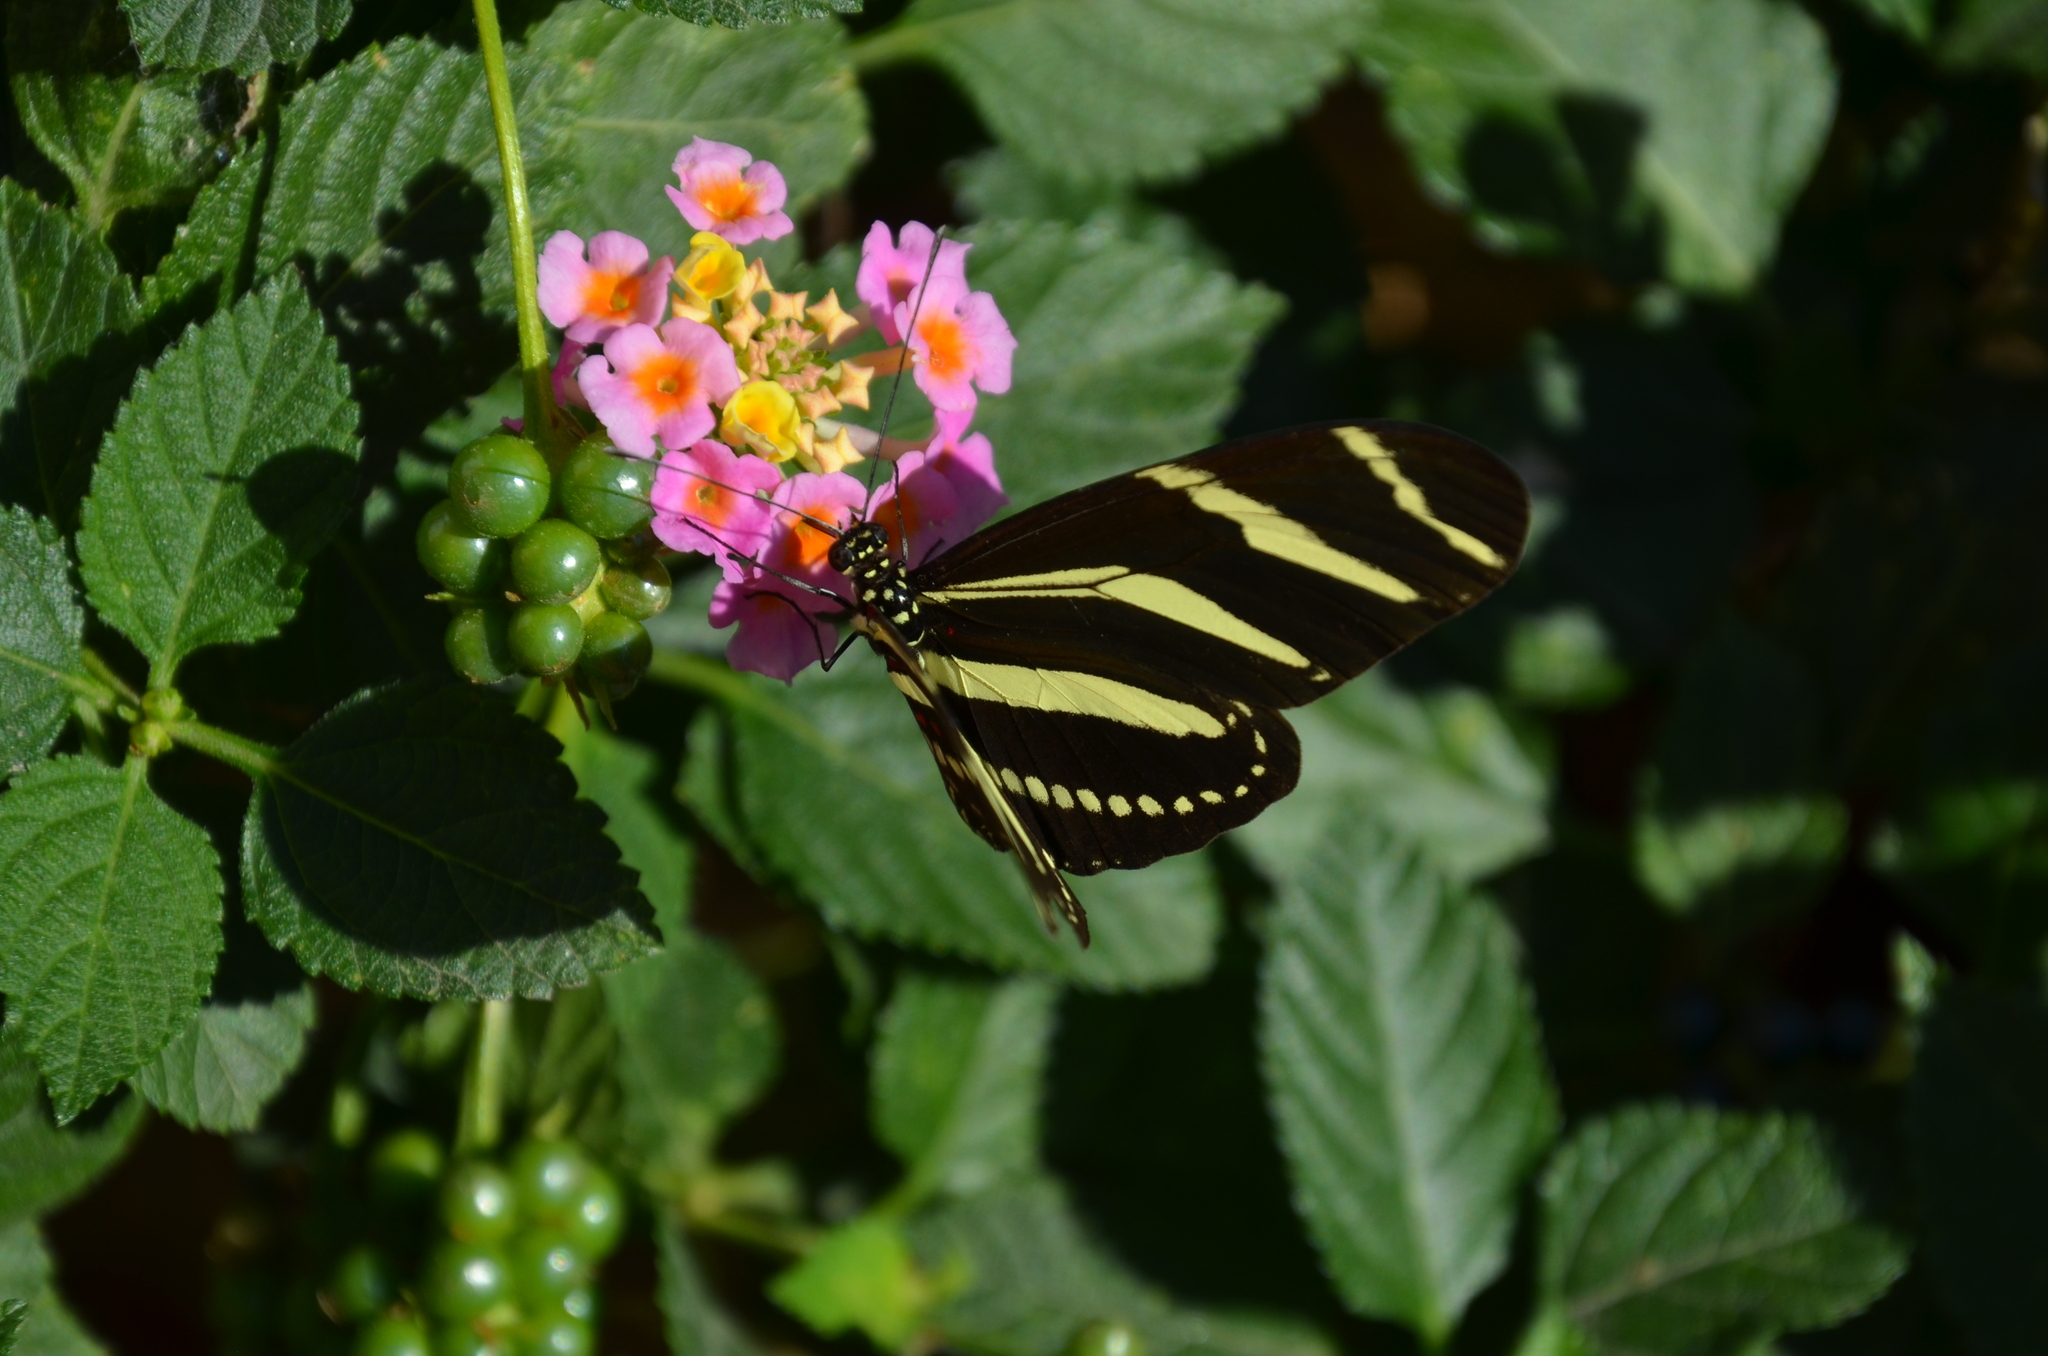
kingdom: Animalia
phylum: Arthropoda
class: Insecta
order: Lepidoptera
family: Nymphalidae
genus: Heliconius
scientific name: Heliconius charithonia
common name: Zebra long wing
